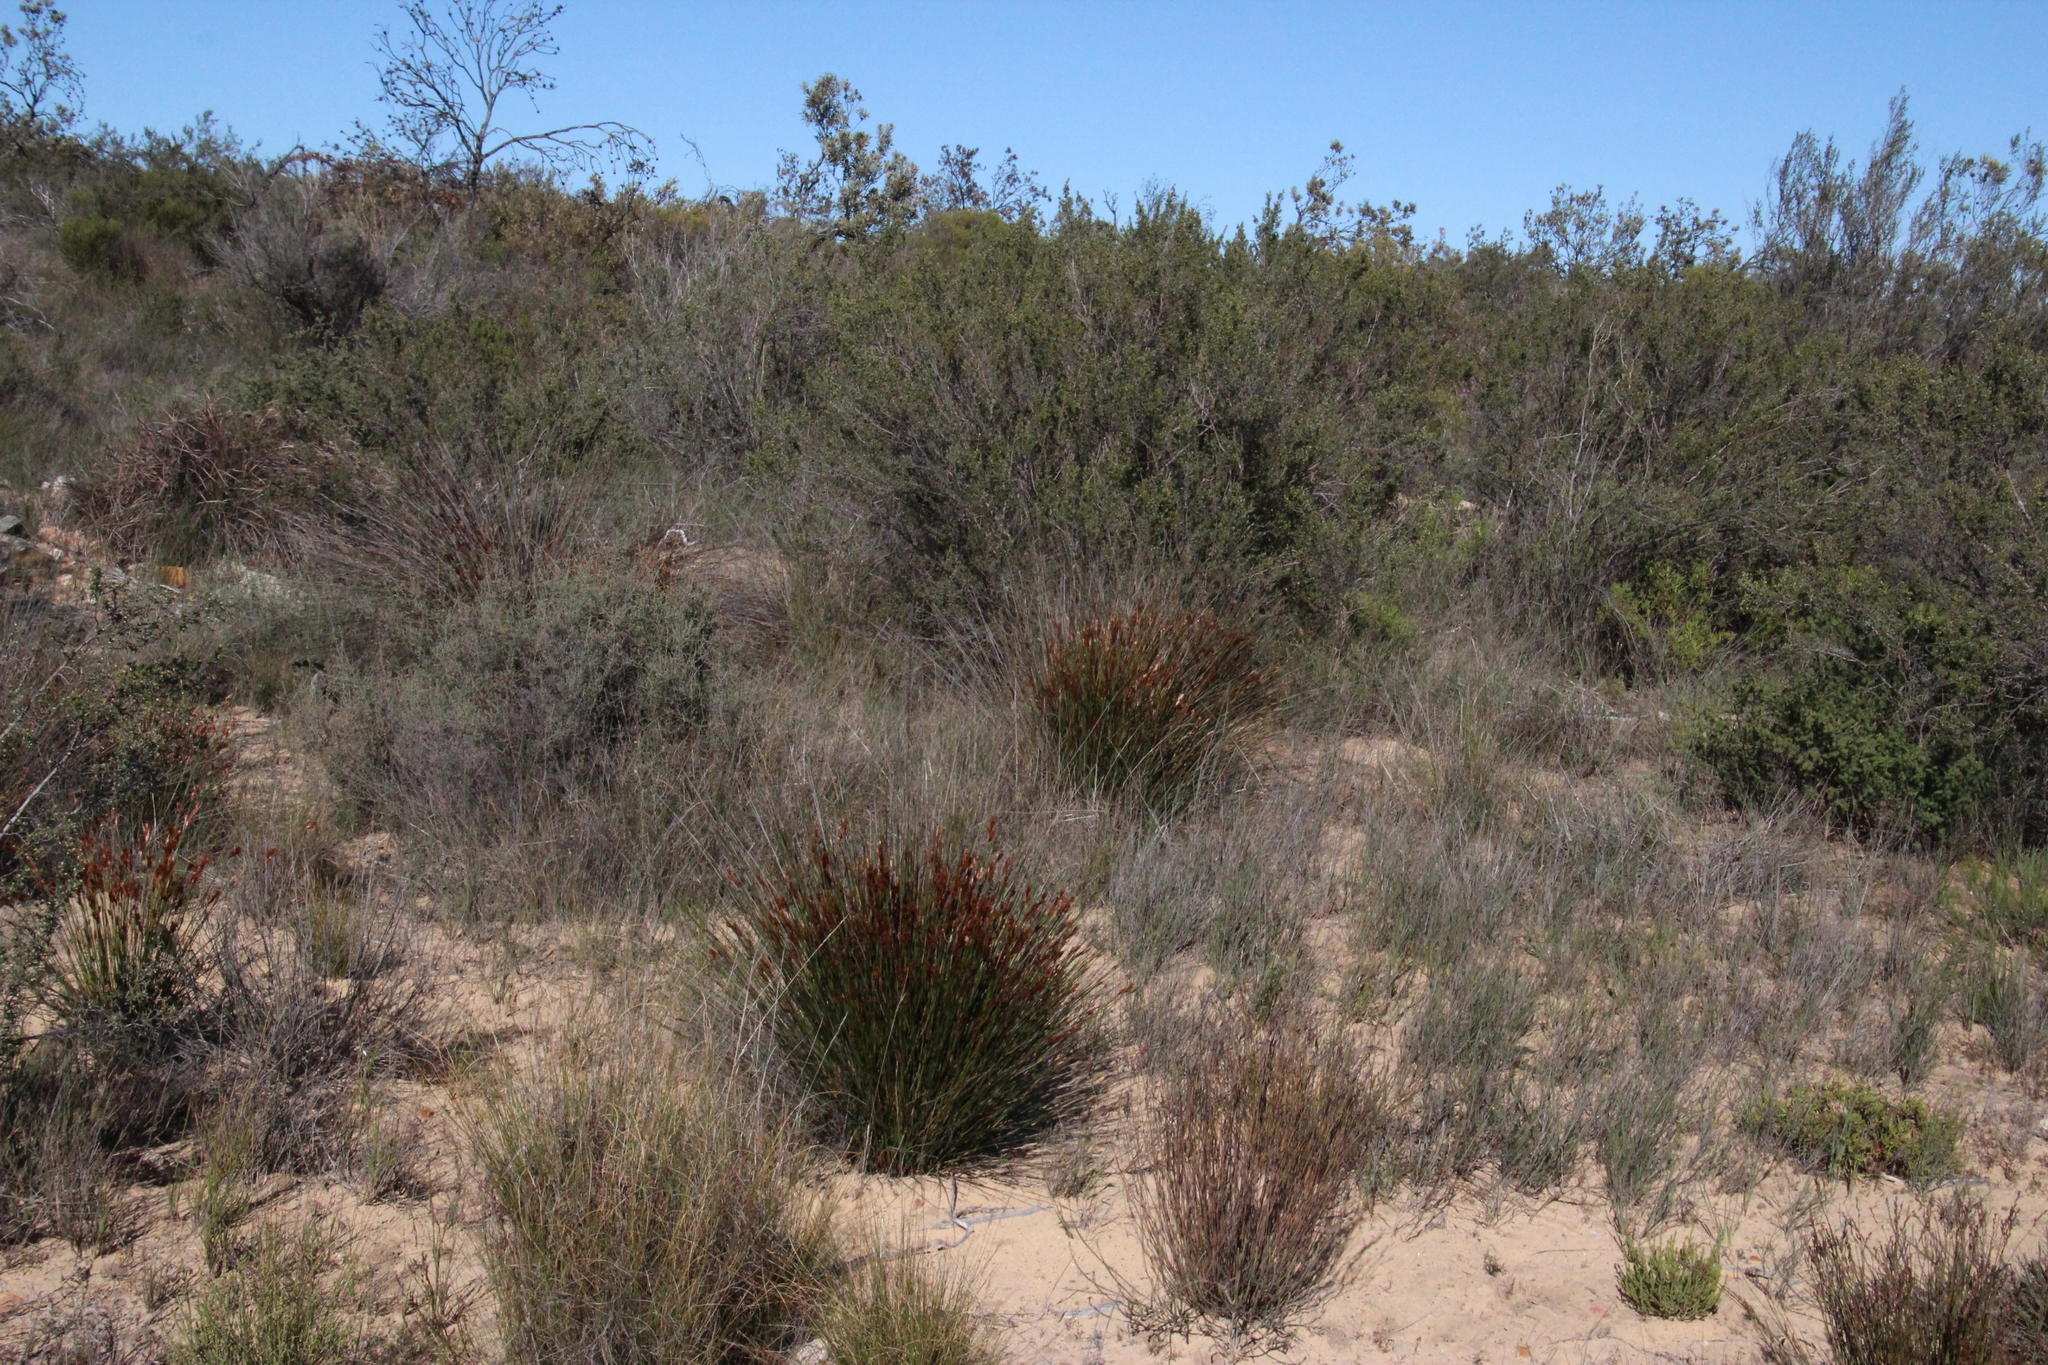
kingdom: Plantae
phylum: Tracheophyta
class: Liliopsida
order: Poales
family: Restionaceae
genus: Thamnochortus
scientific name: Thamnochortus bachmannii
